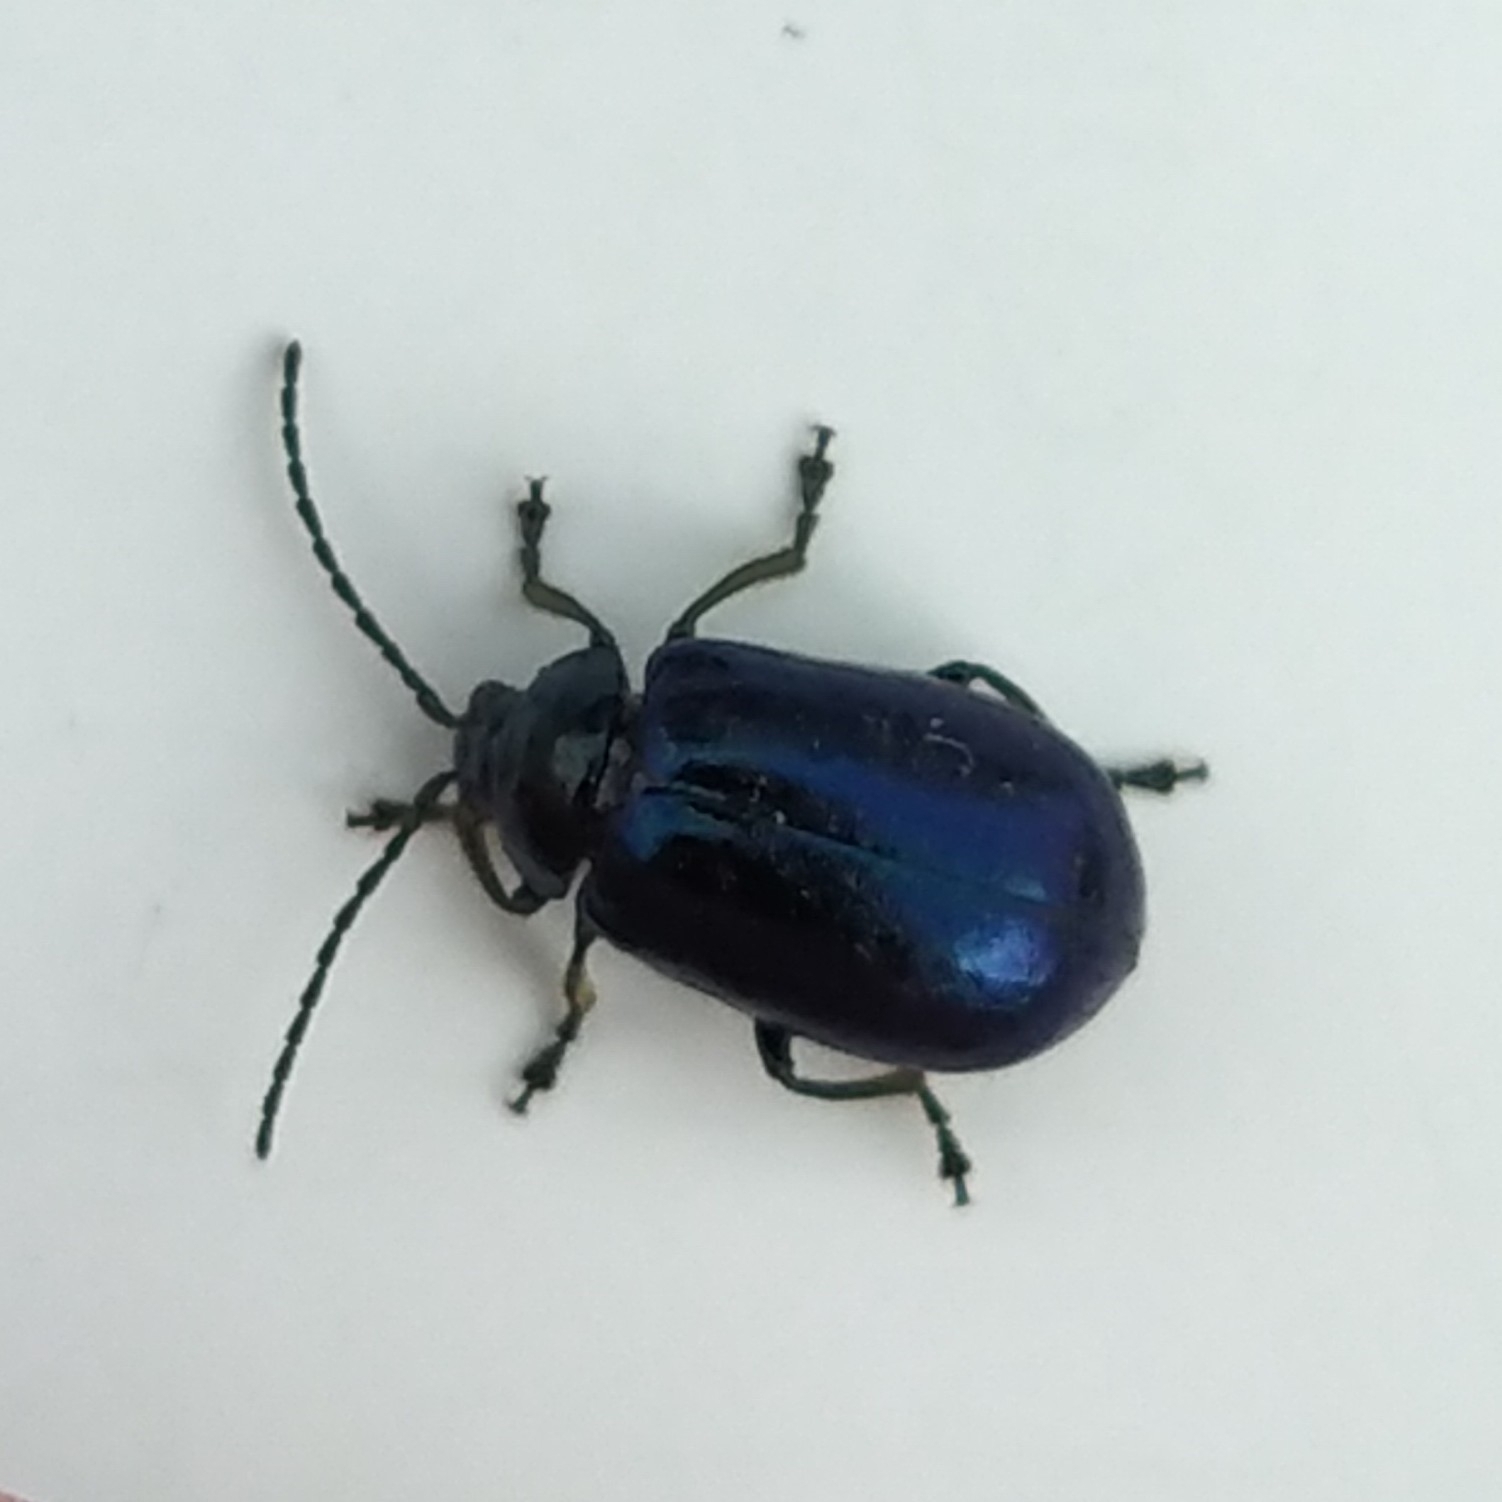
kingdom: Animalia
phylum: Arthropoda
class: Insecta
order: Coleoptera
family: Chrysomelidae
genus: Agelastica
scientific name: Agelastica alni
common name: Alder leaf beetle
